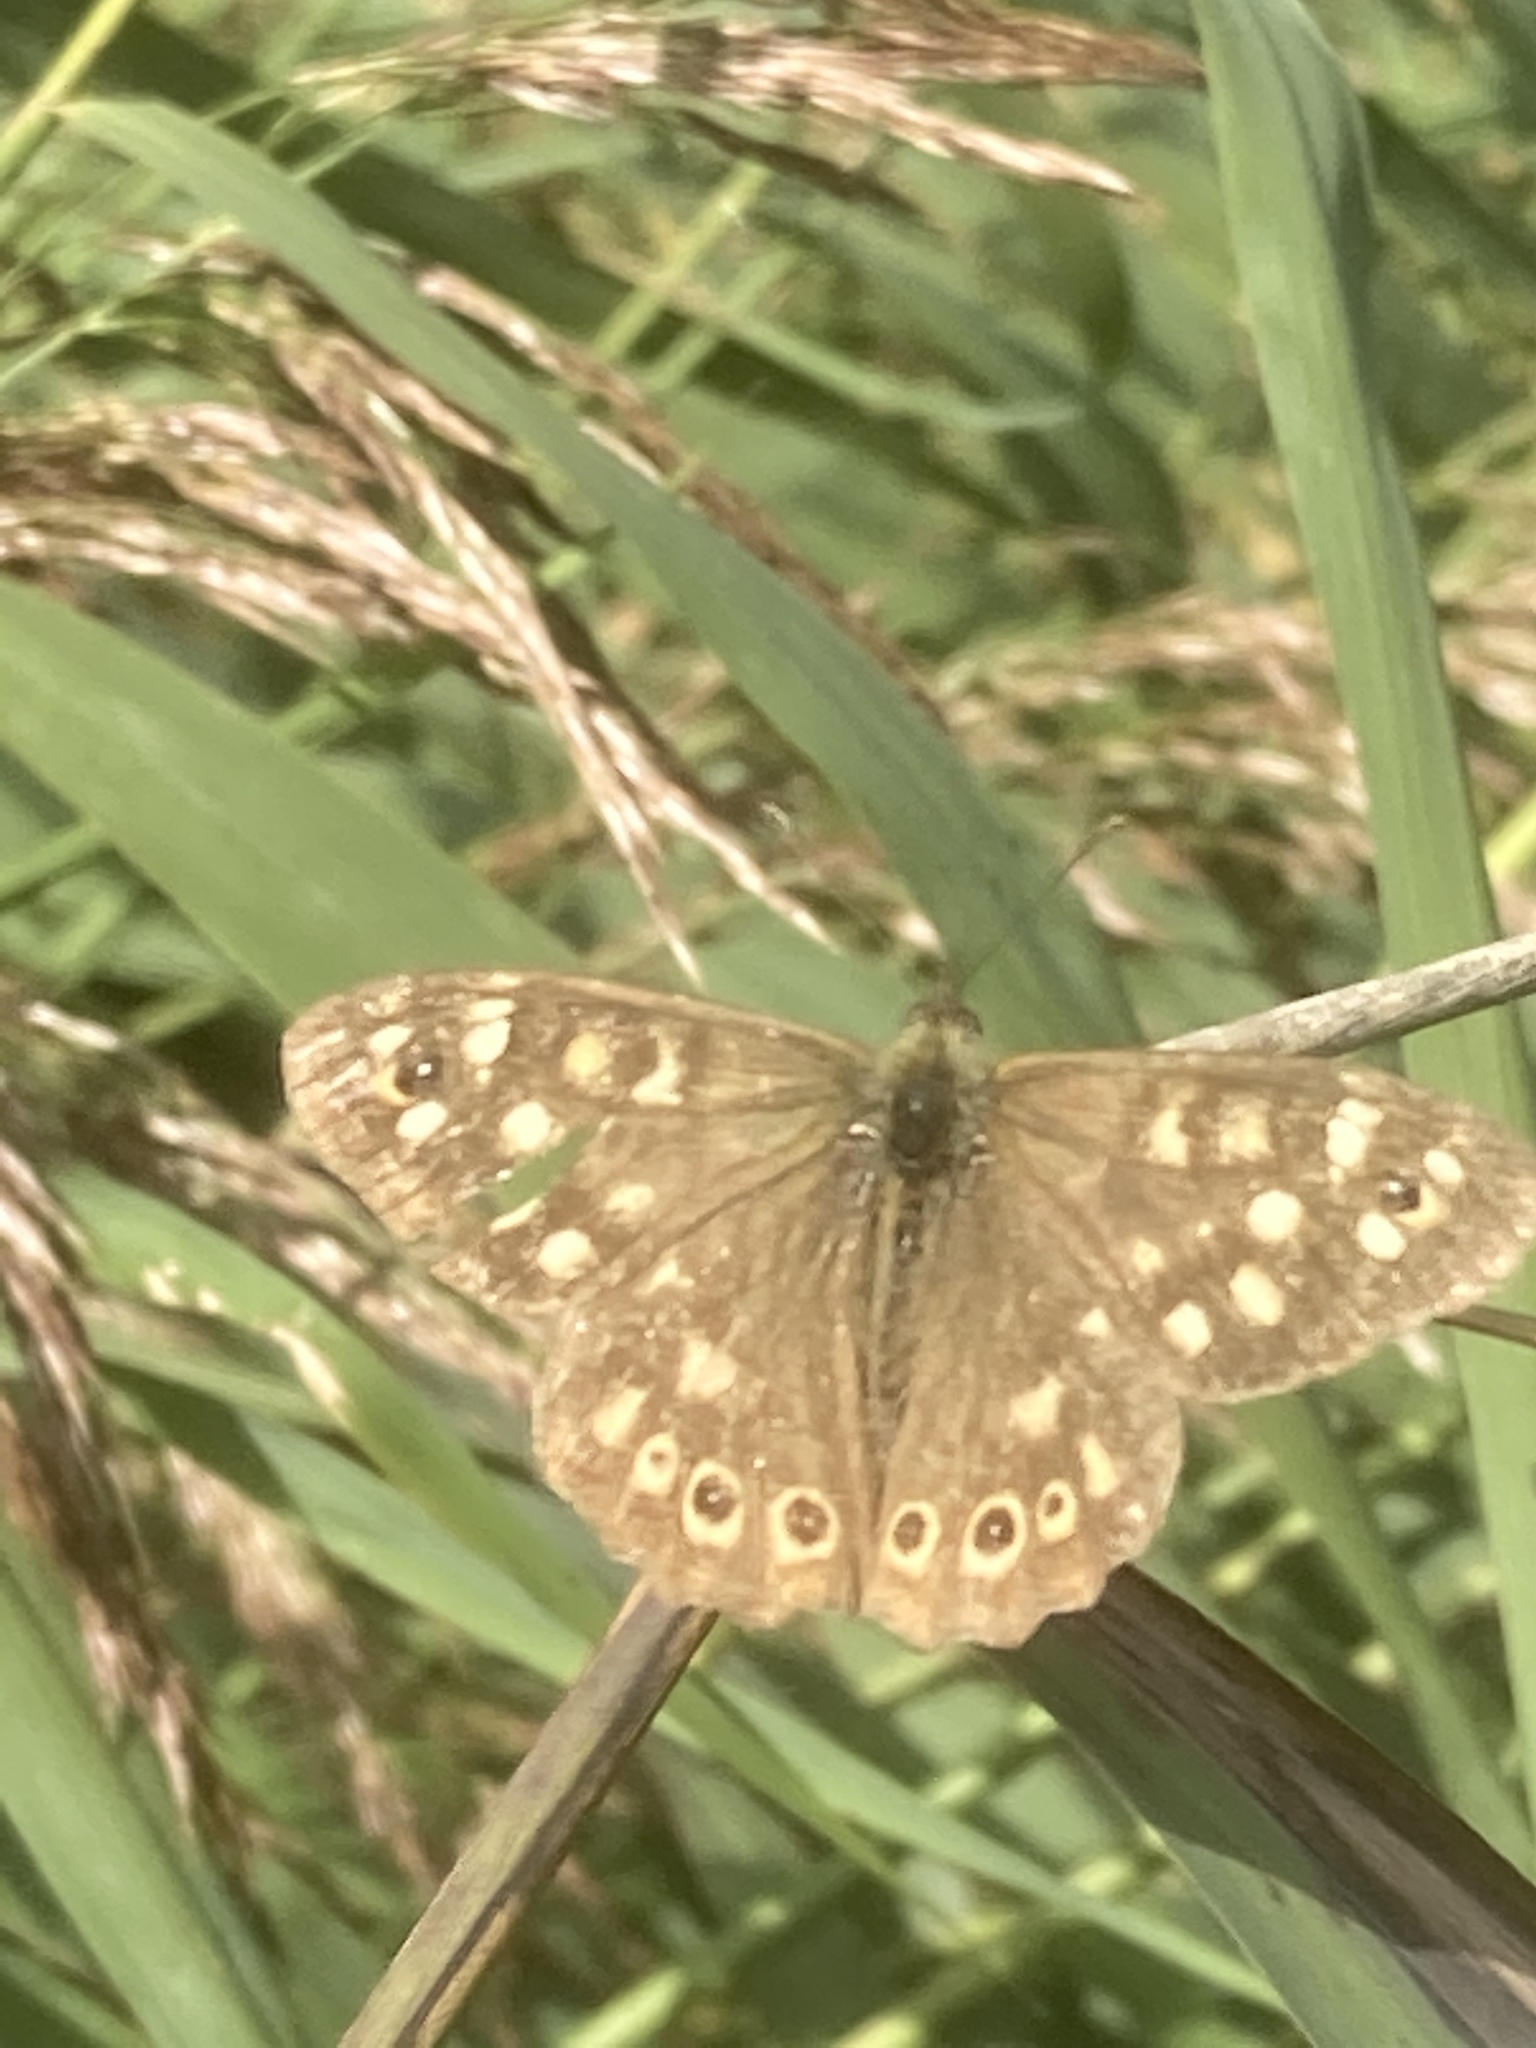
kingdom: Animalia
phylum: Arthropoda
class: Insecta
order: Lepidoptera
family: Nymphalidae
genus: Pararge
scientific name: Pararge aegeria
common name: Speckled wood
